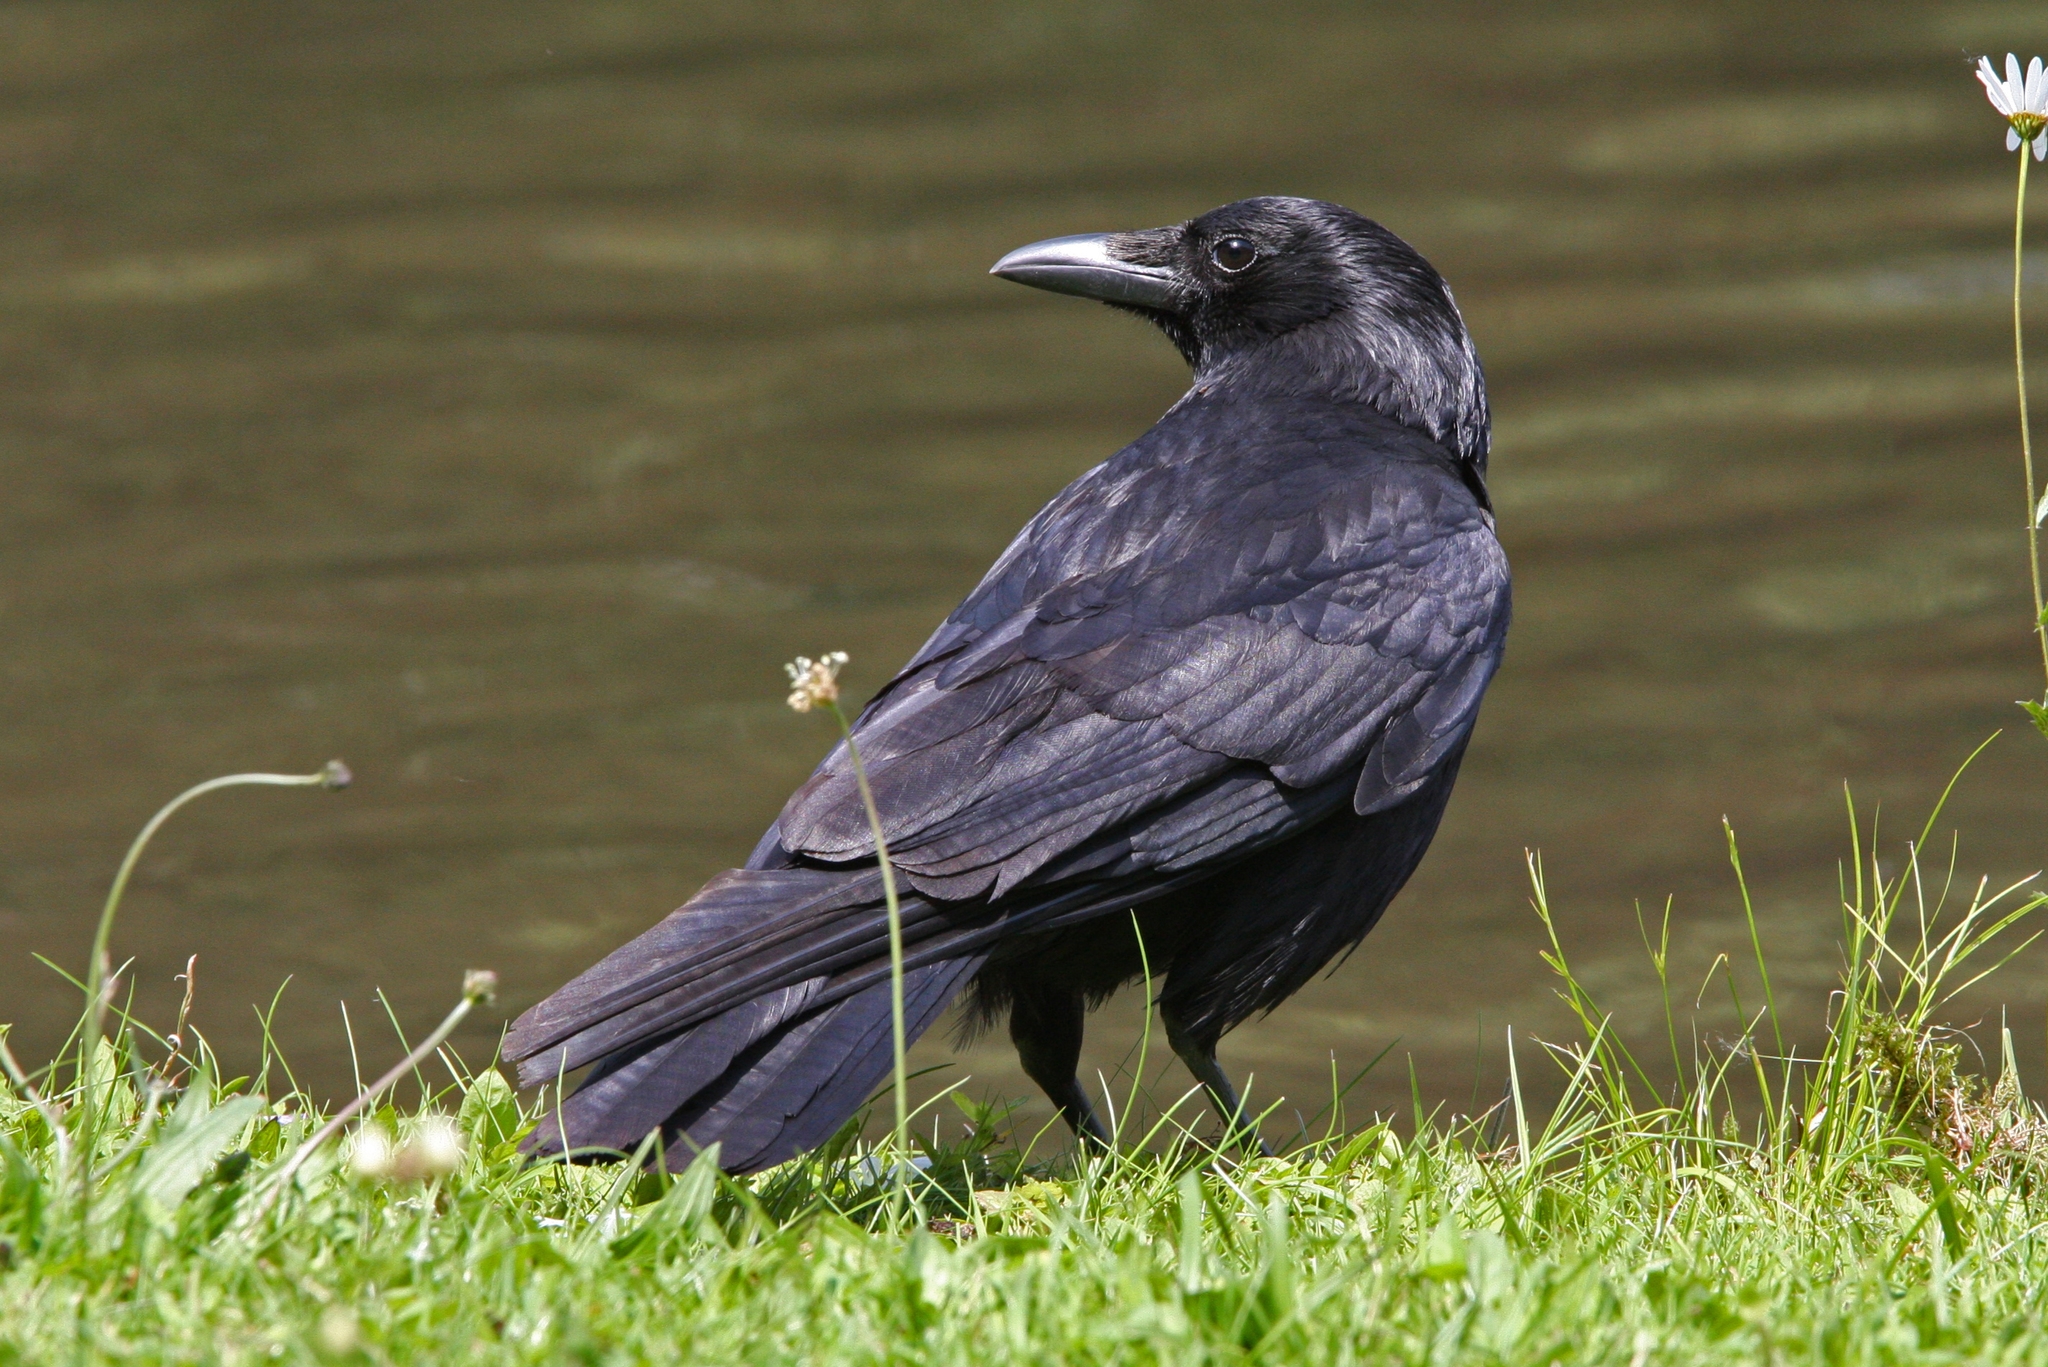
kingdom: Animalia
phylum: Chordata
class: Aves
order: Passeriformes
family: Corvidae
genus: Corvus
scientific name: Corvus corone
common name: Carrion crow
